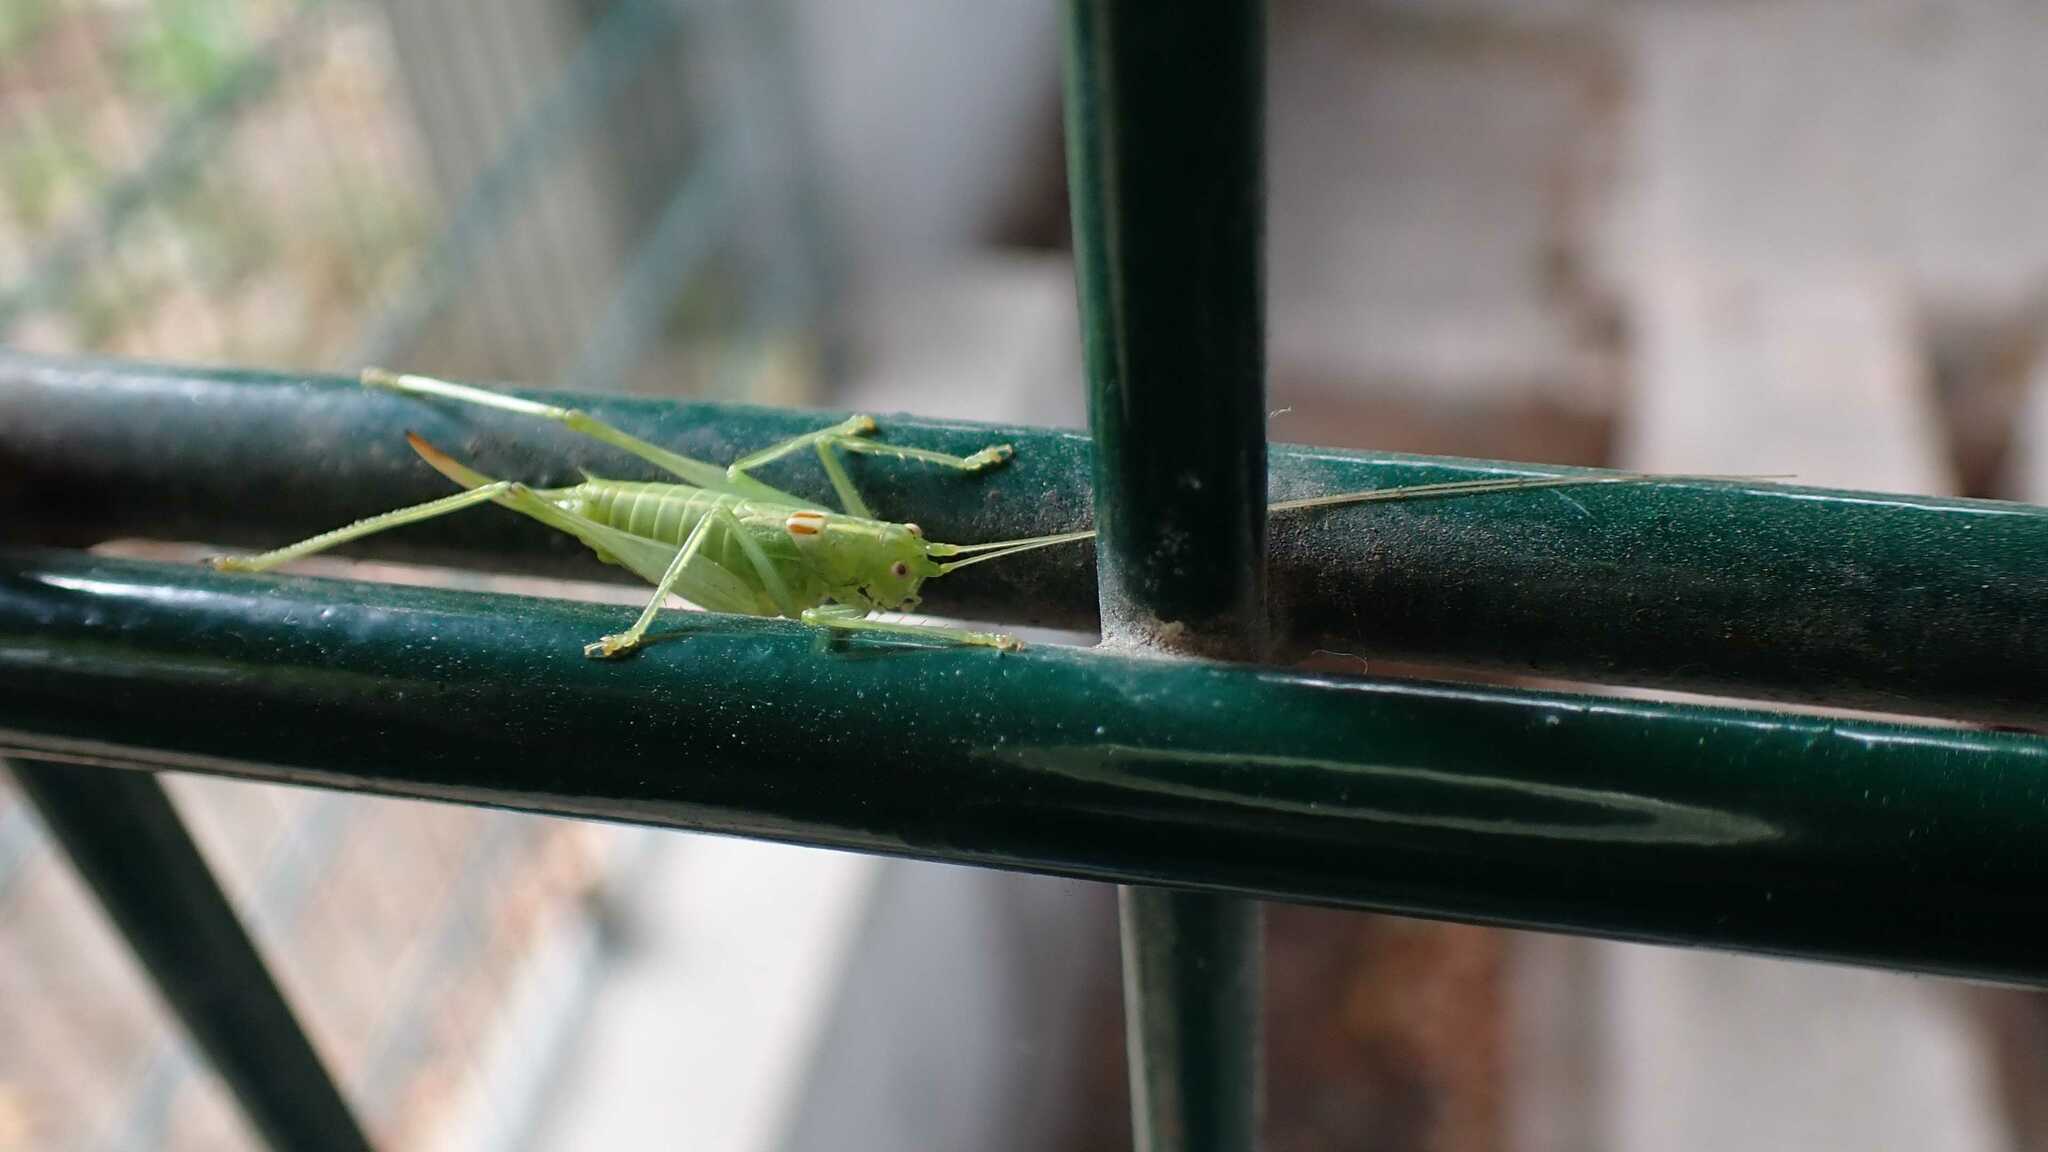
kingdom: Animalia
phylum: Arthropoda
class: Insecta
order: Orthoptera
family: Tettigoniidae
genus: Meconema
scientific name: Meconema meridionale
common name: Southern oak bush-cricket
